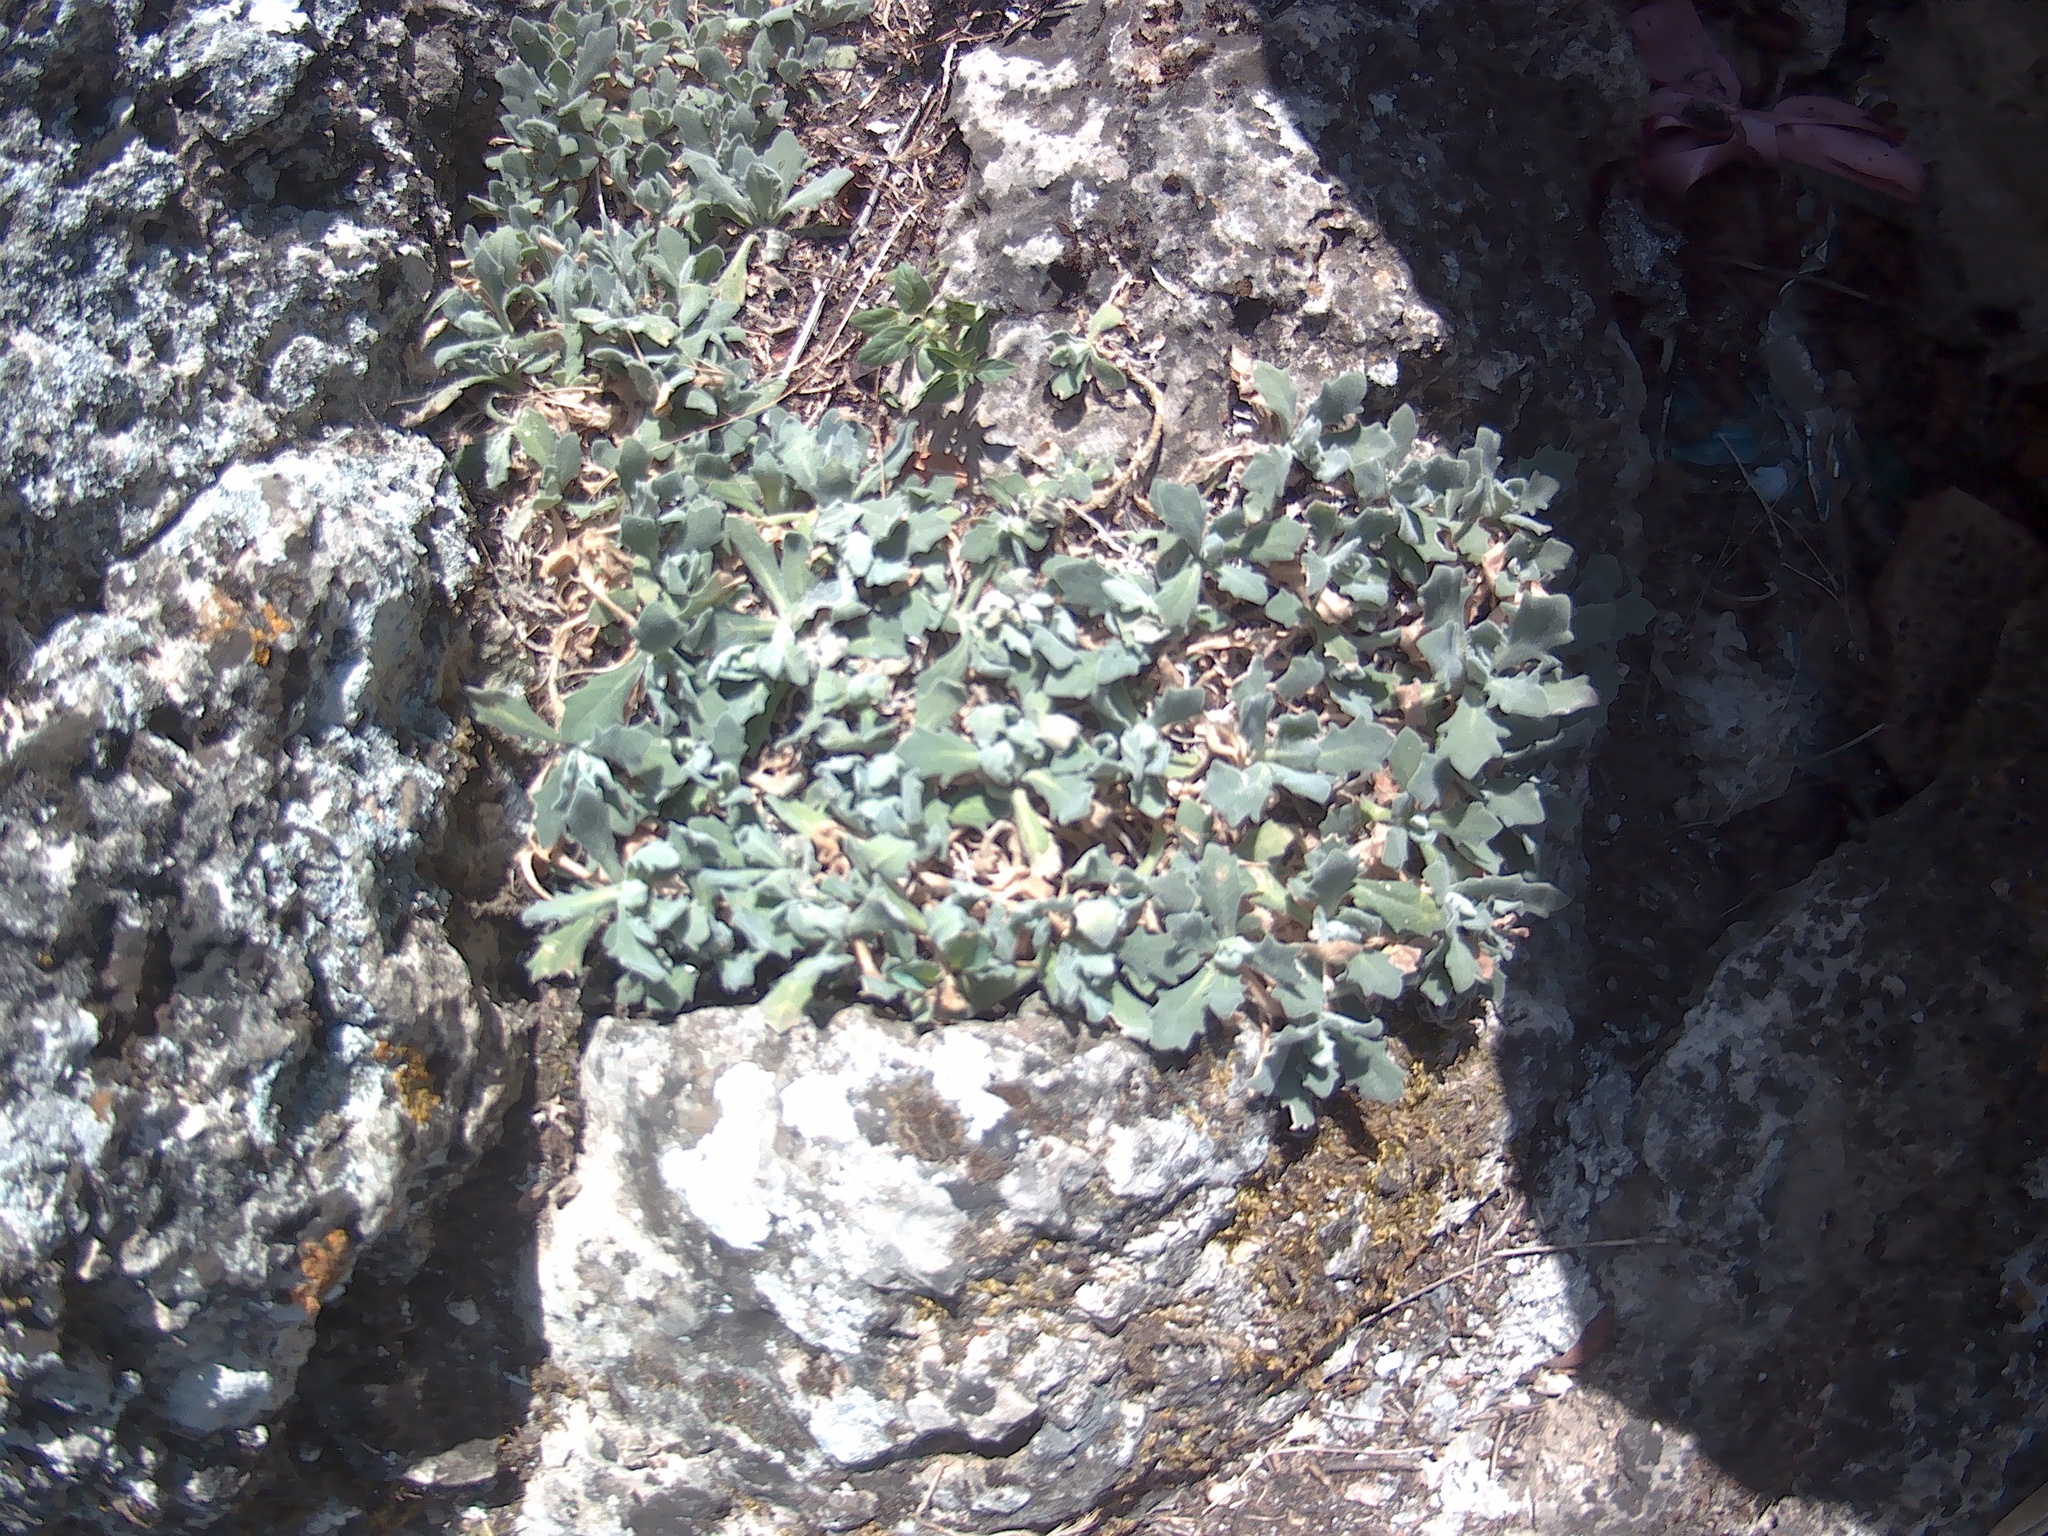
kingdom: Plantae
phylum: Tracheophyta
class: Magnoliopsida
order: Brassicales
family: Brassicaceae
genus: Arabis
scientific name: Arabis caucasica
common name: Gray rockcress
